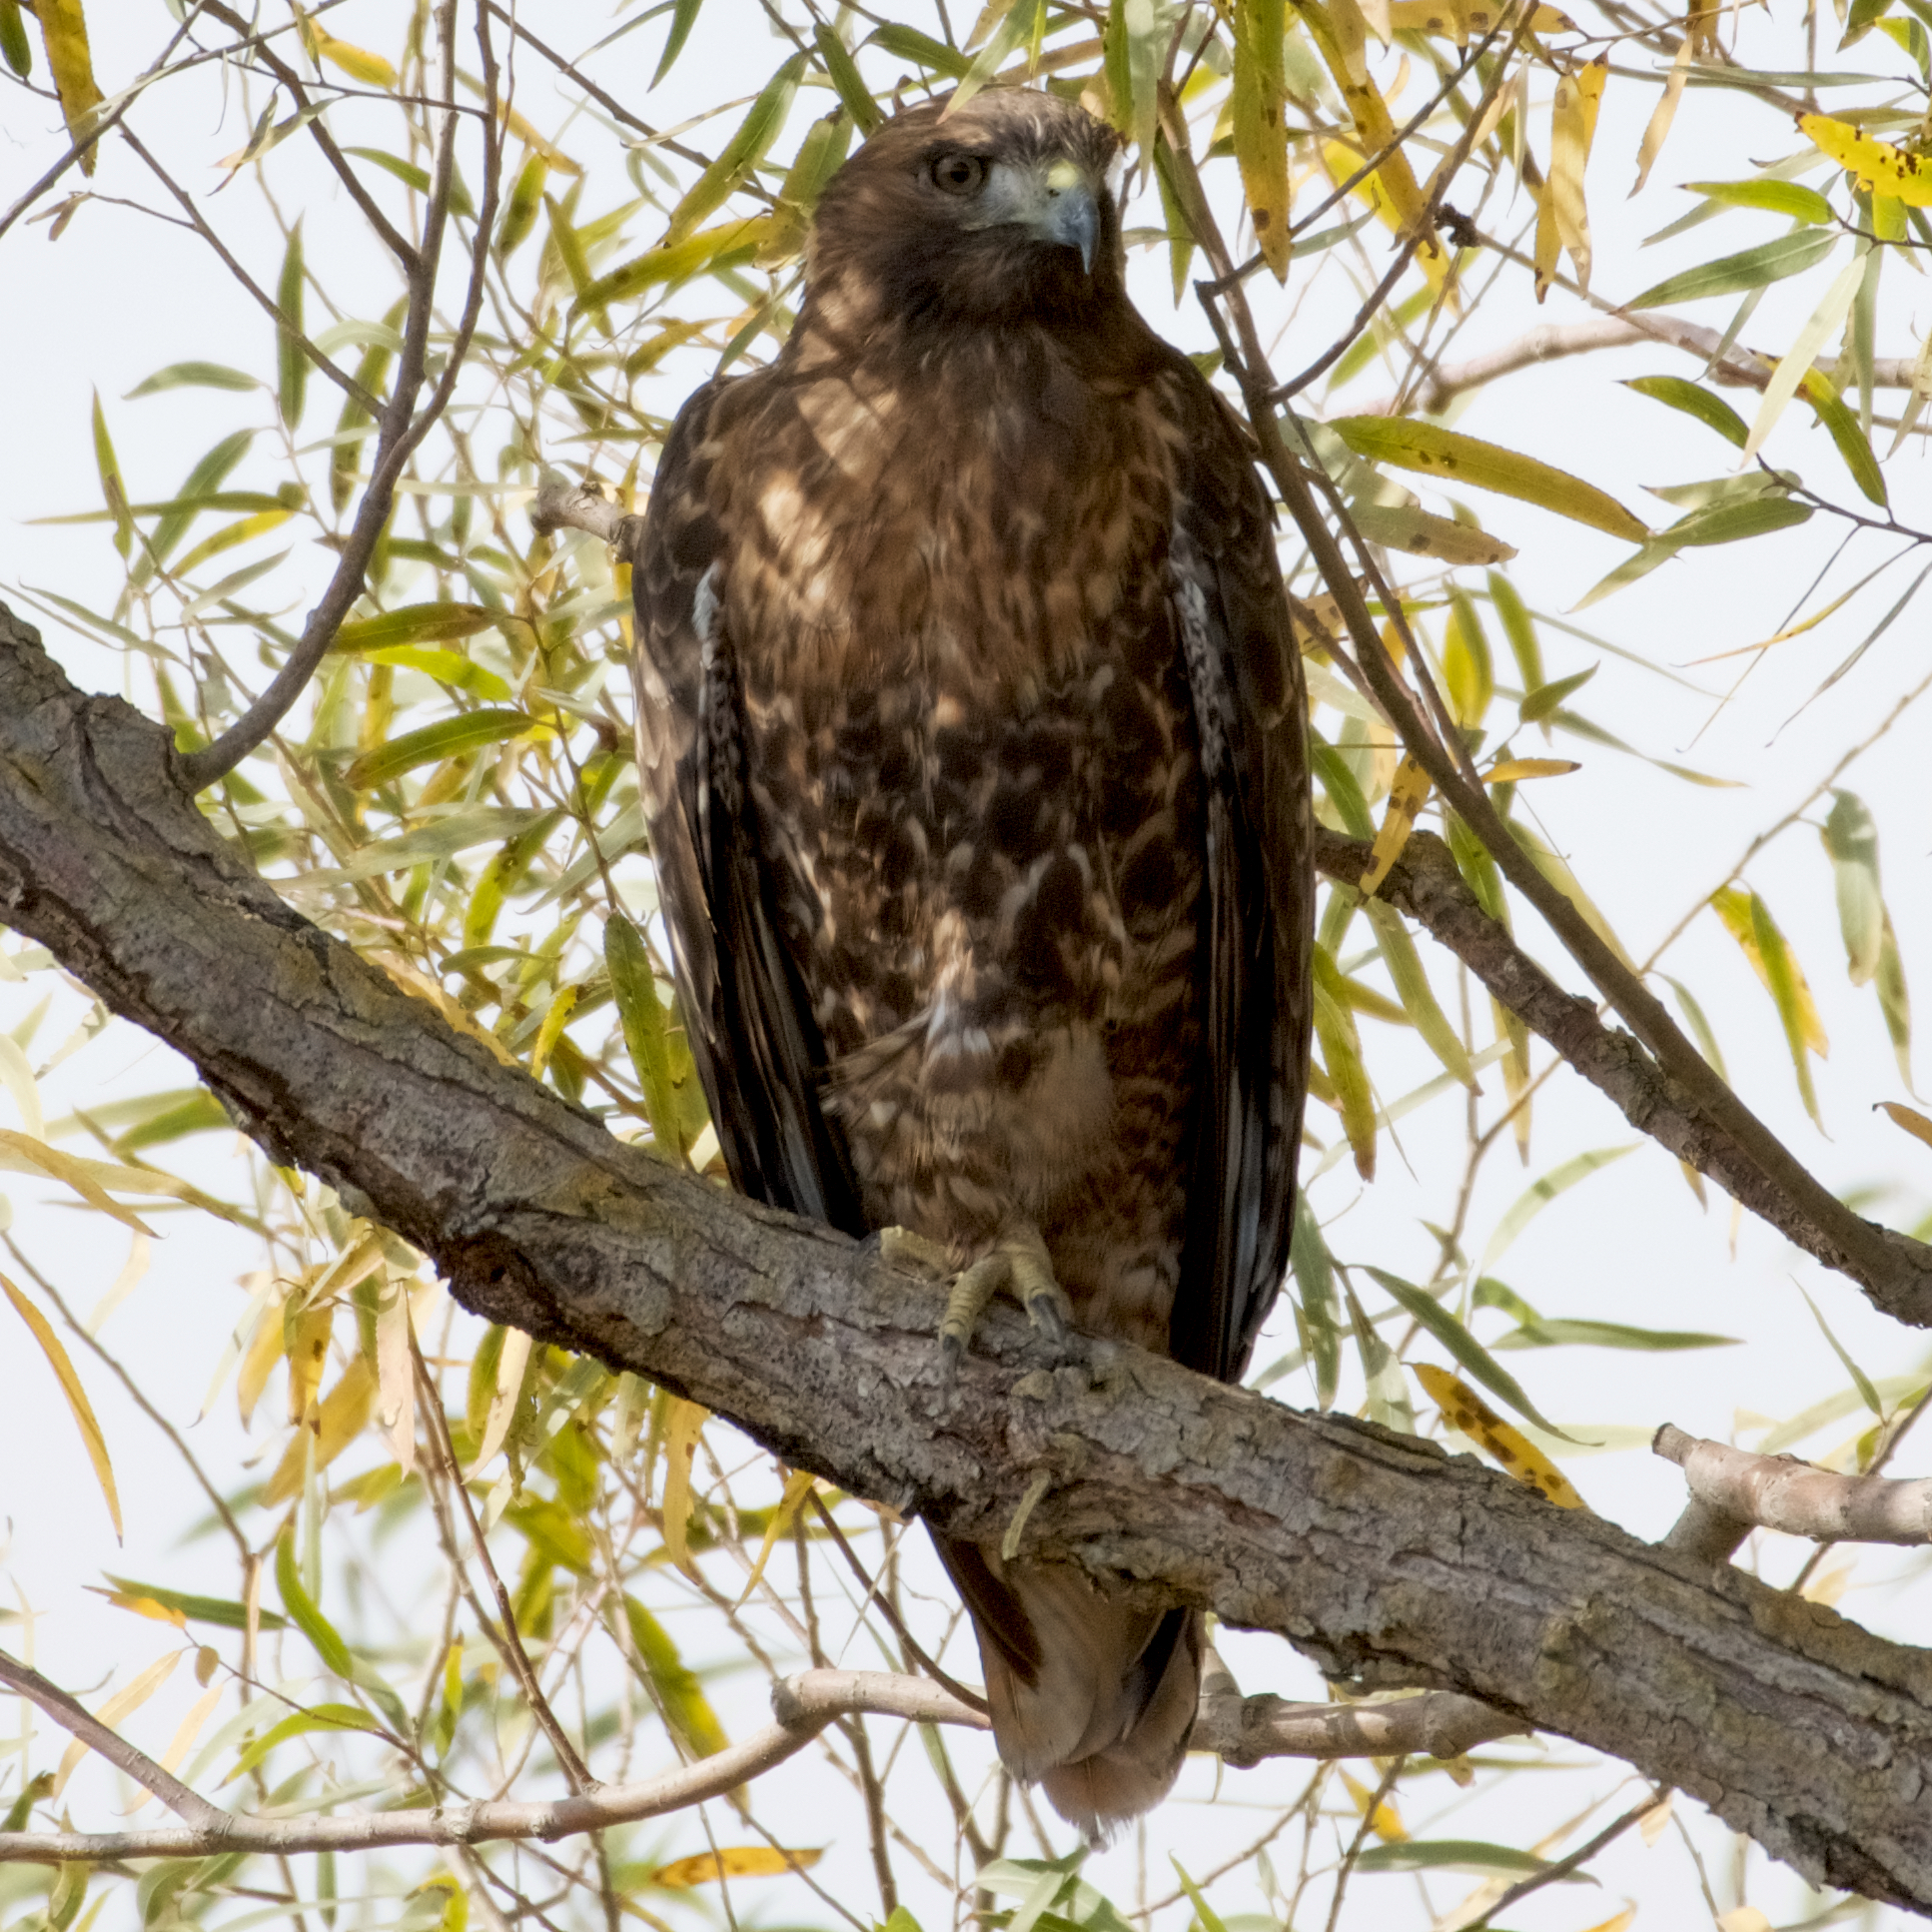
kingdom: Animalia
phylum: Chordata
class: Aves
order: Accipitriformes
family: Accipitridae
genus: Buteo
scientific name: Buteo jamaicensis
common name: Red-tailed hawk
